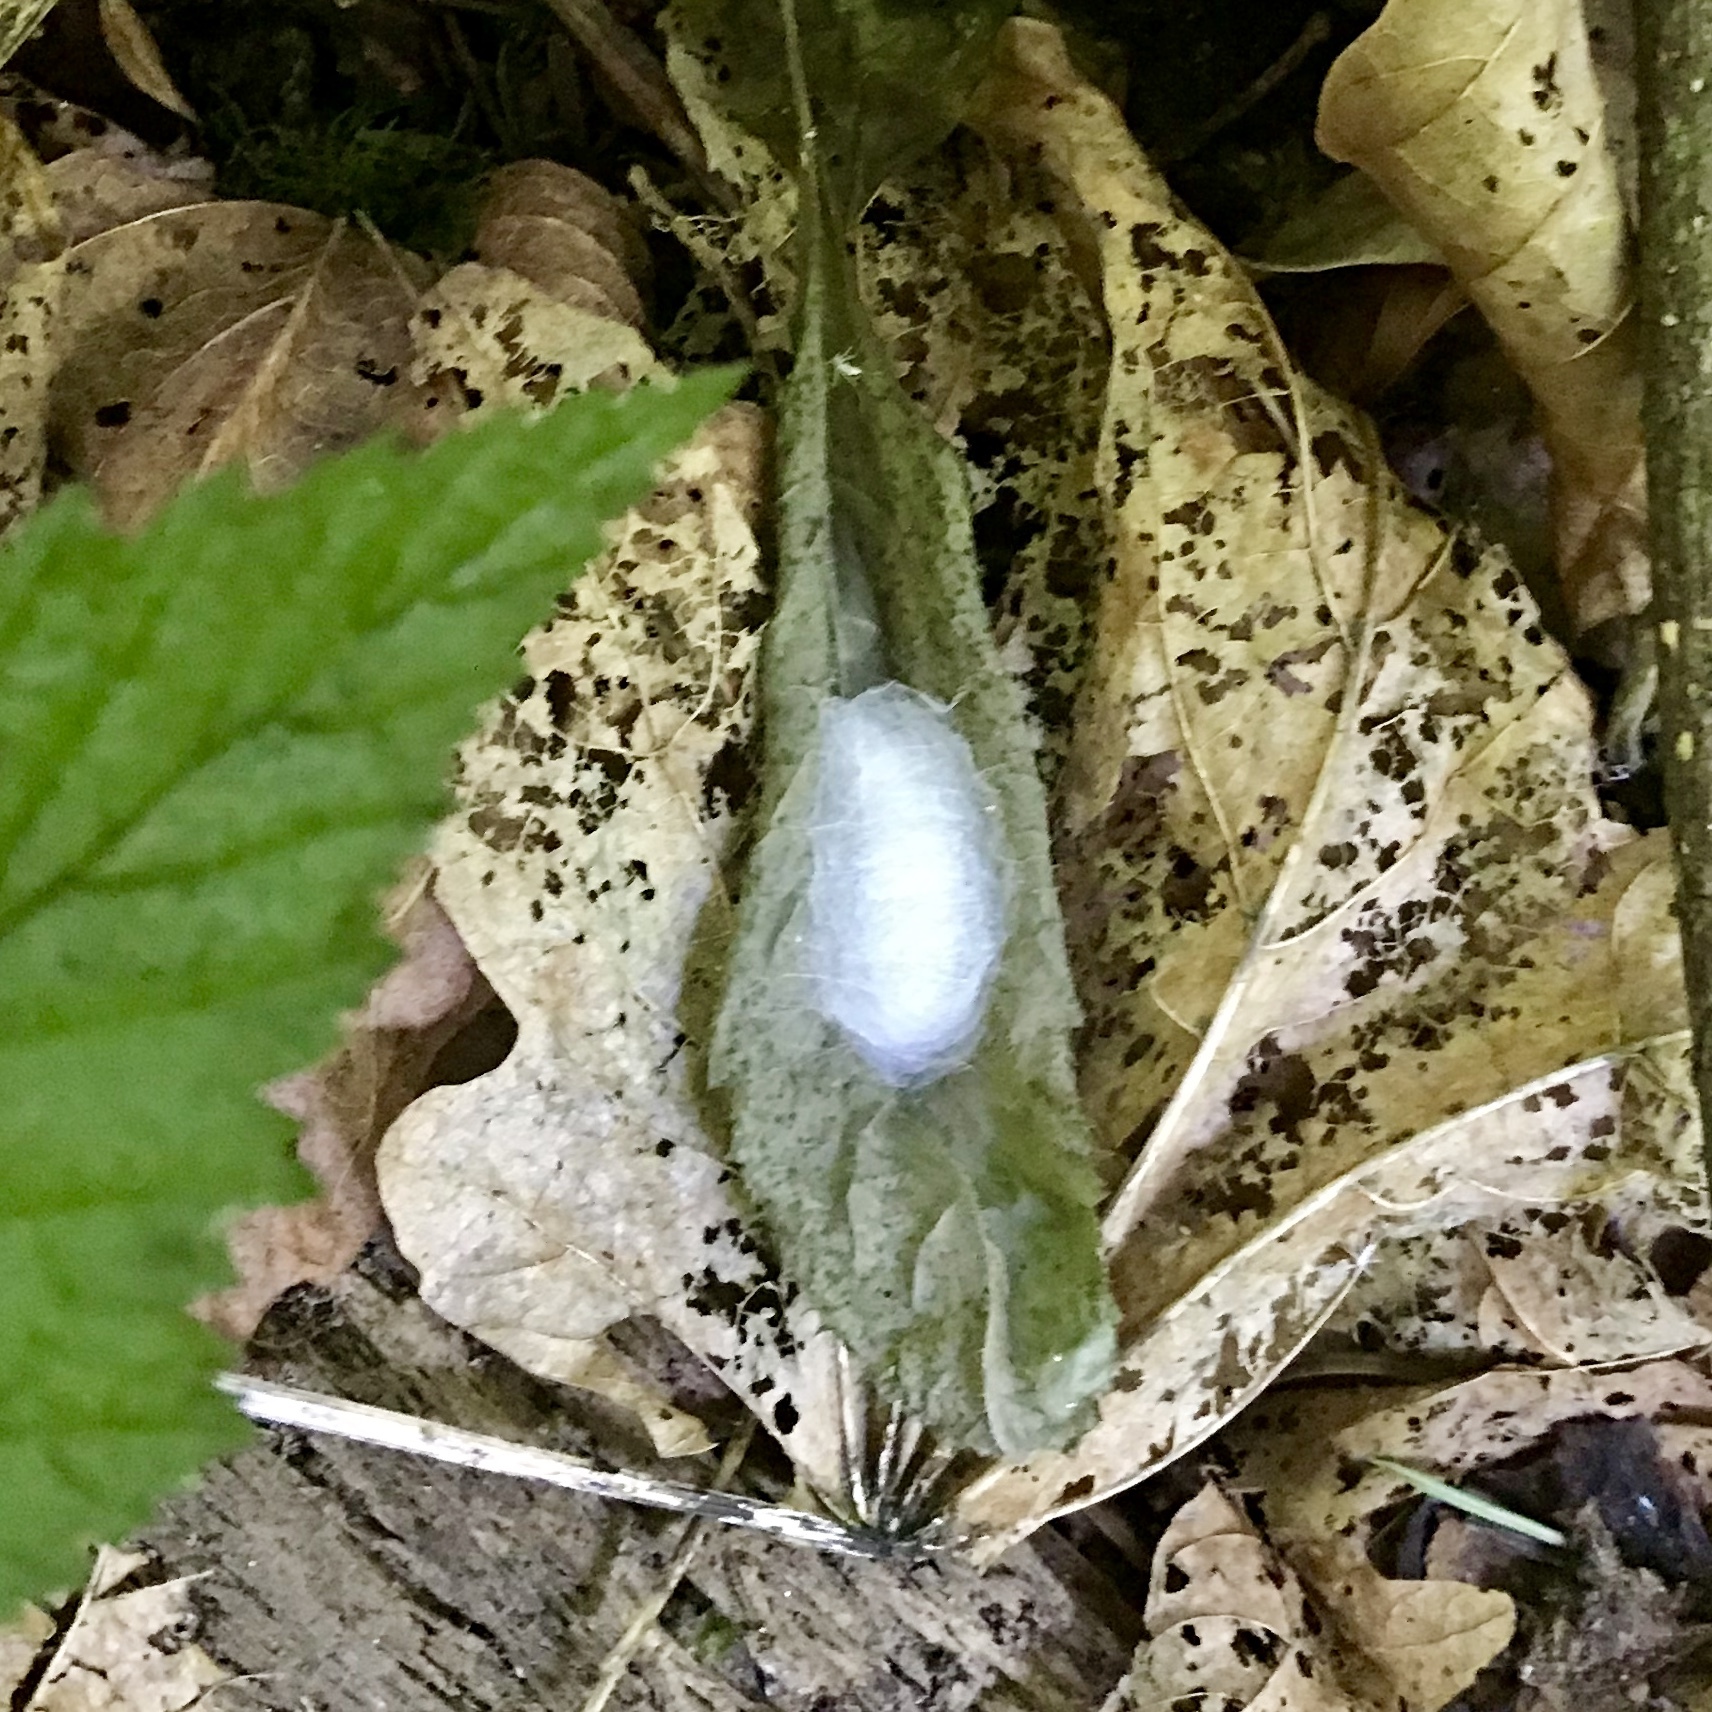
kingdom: Animalia
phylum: Arthropoda
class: Insecta
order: Lepidoptera
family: Noctuidae
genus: Autographa
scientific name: Autographa corusca
